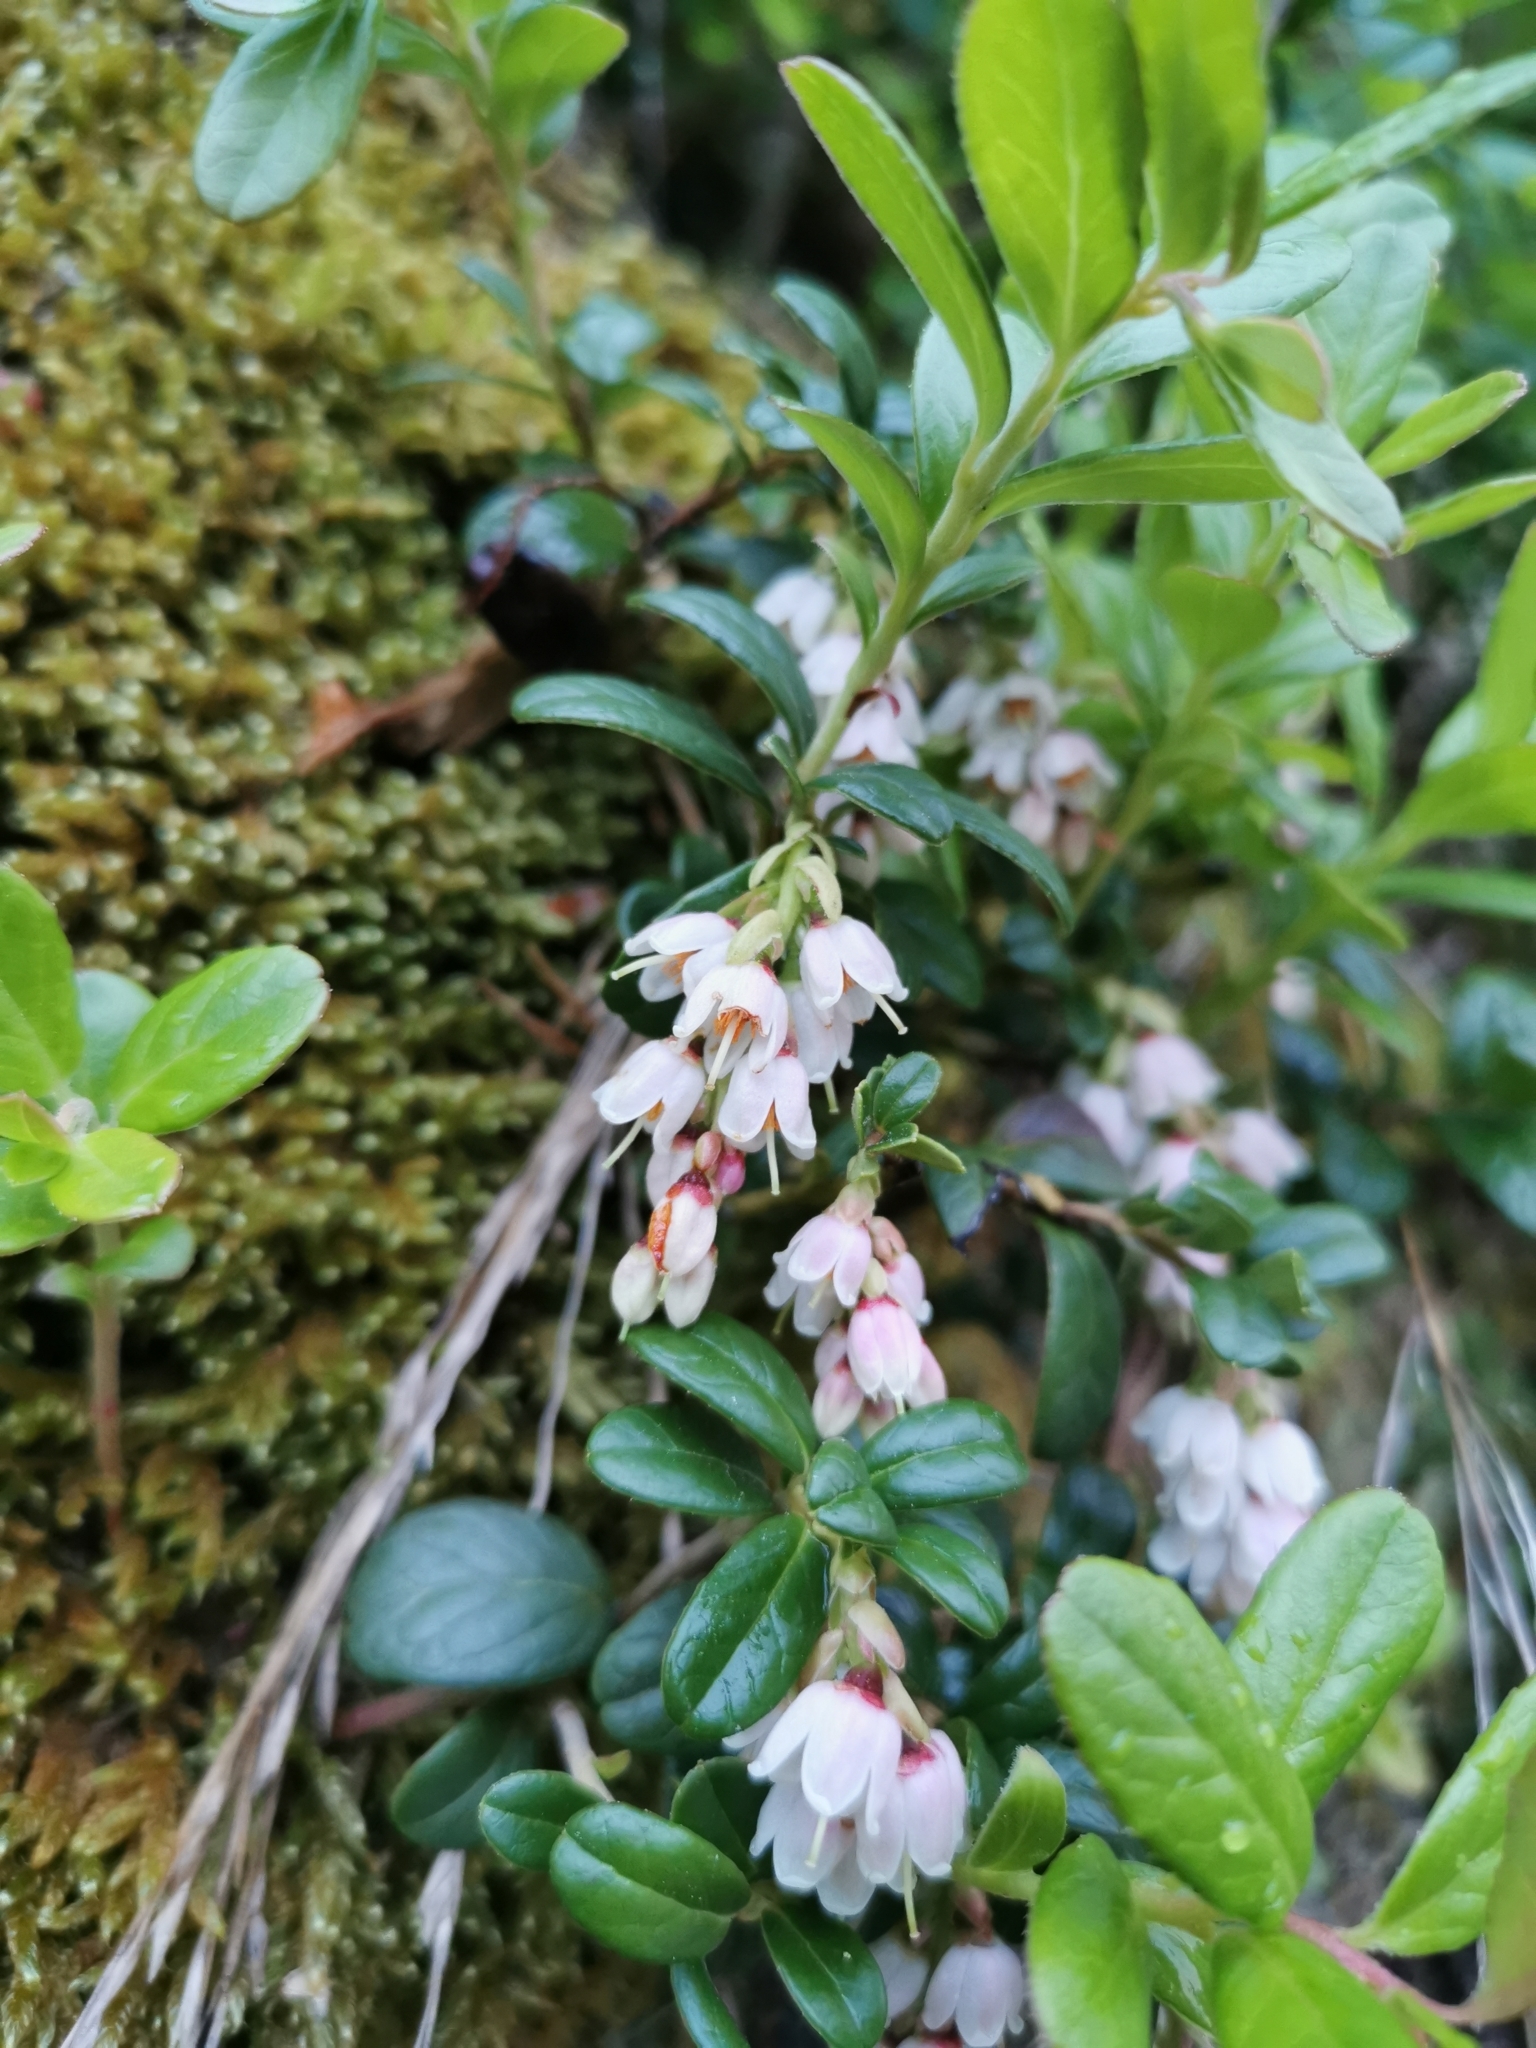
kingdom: Plantae
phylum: Tracheophyta
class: Magnoliopsida
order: Ericales
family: Ericaceae
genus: Vaccinium
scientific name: Vaccinium vitis-idaea
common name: Cowberry
